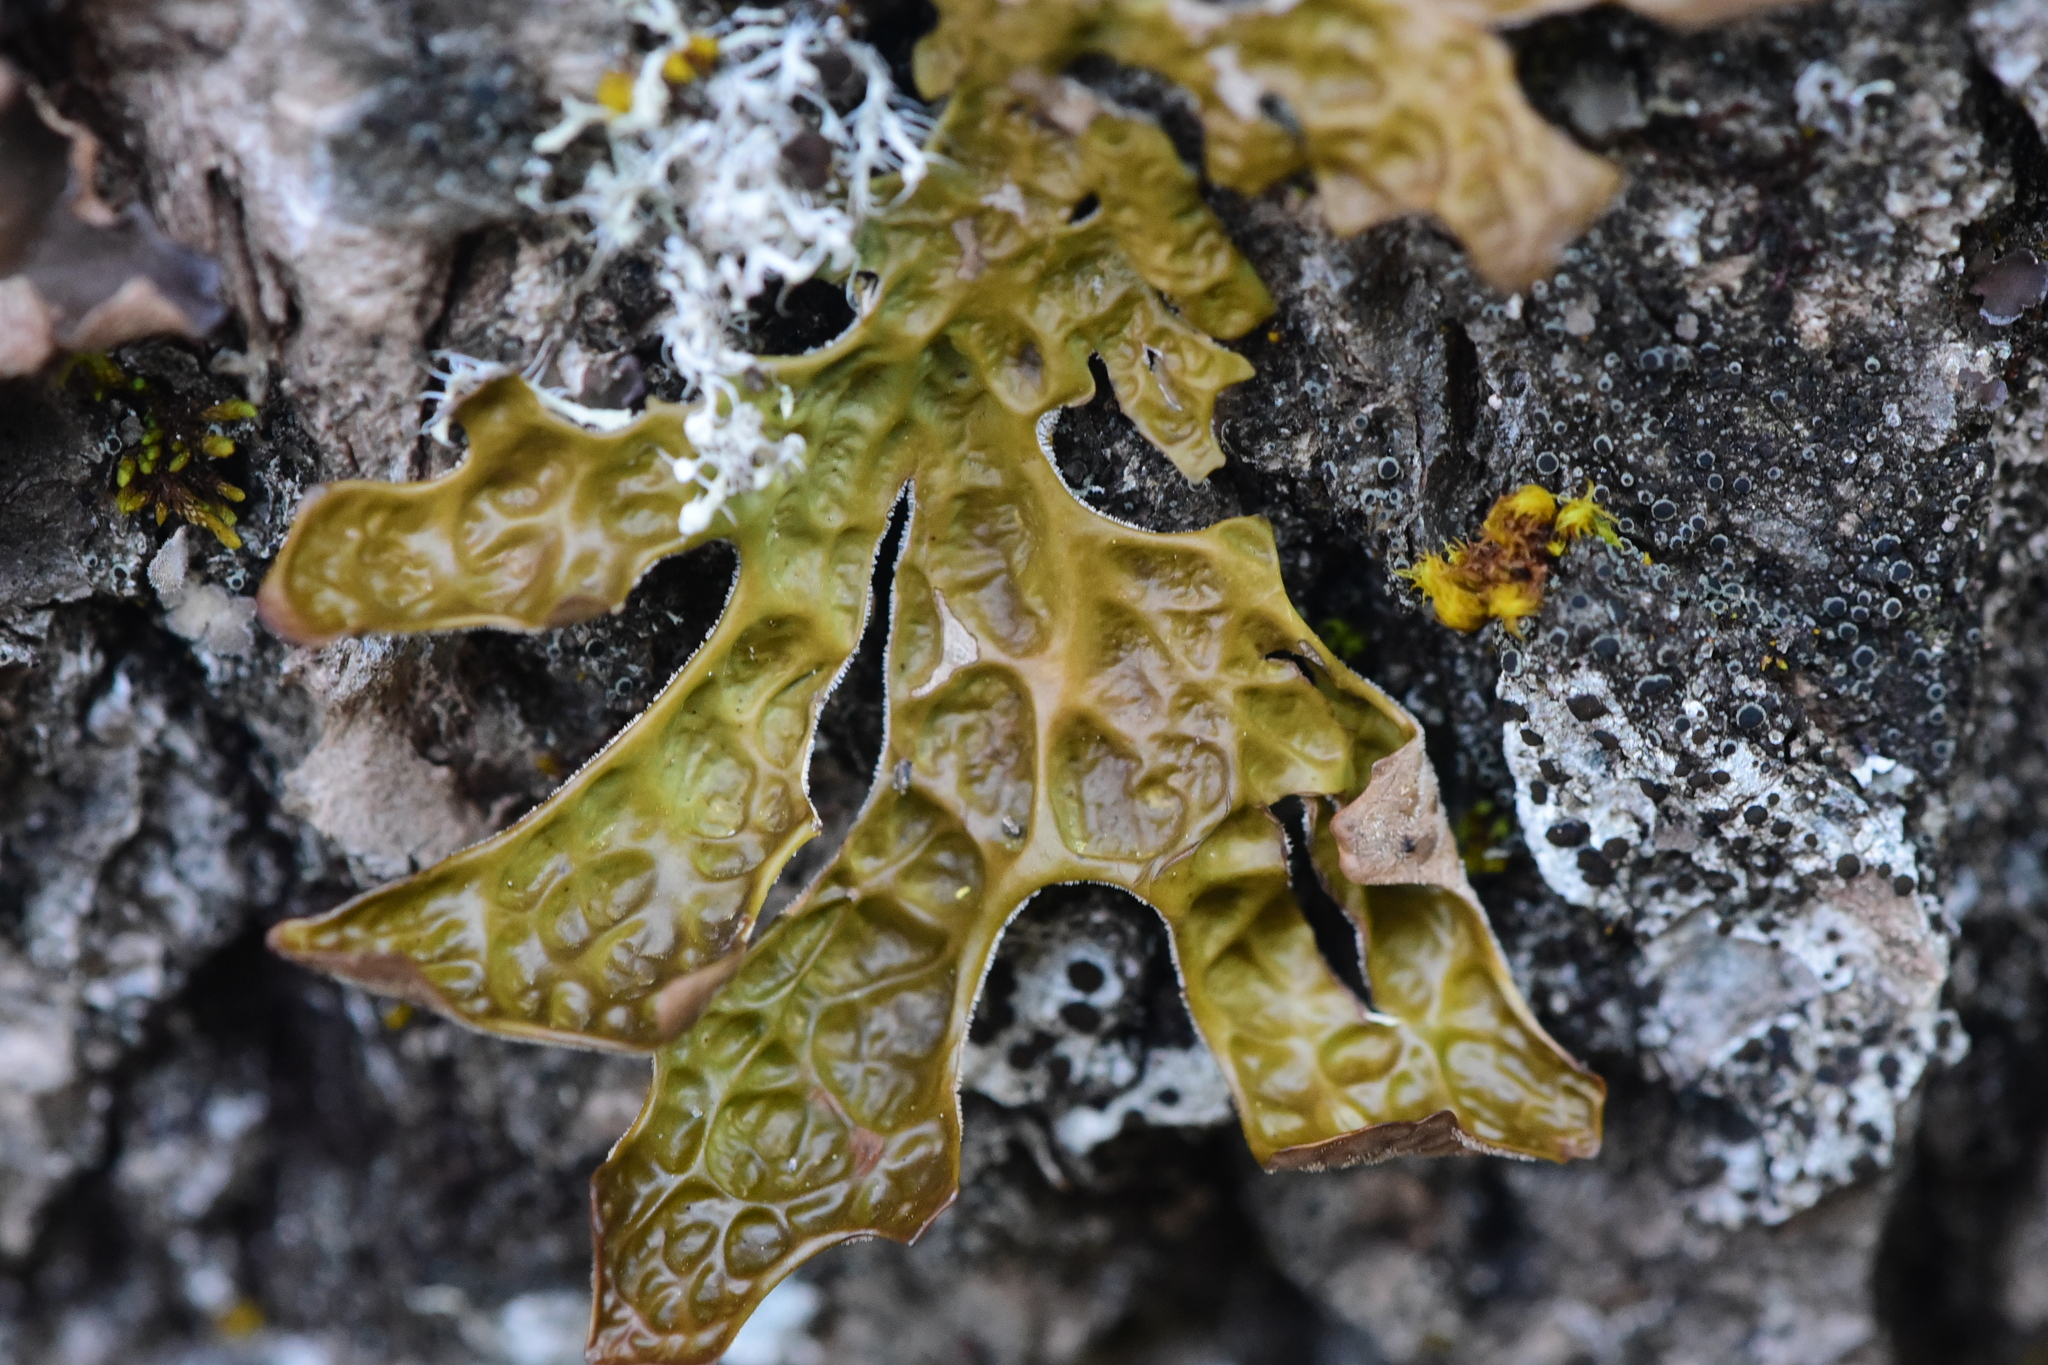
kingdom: Fungi
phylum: Ascomycota
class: Lecanoromycetes
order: Peltigerales
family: Lobariaceae
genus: Lobaria
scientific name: Lobaria pulmonaria
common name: Lungwort
